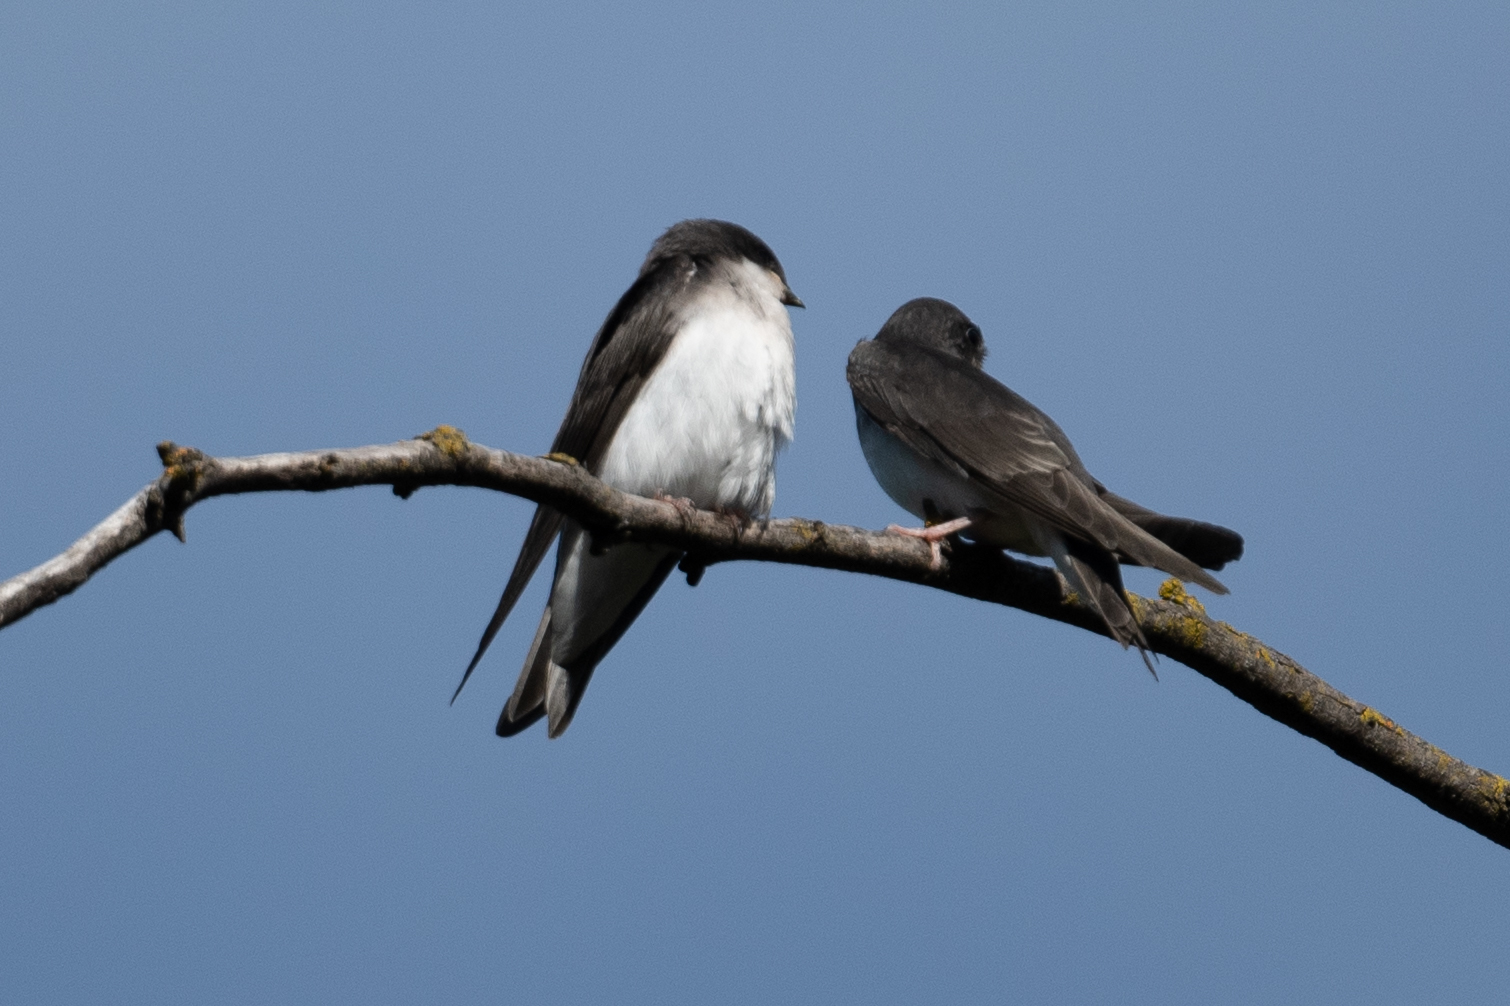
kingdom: Animalia
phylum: Chordata
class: Aves
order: Passeriformes
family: Hirundinidae
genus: Tachycineta
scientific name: Tachycineta bicolor
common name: Tree swallow
